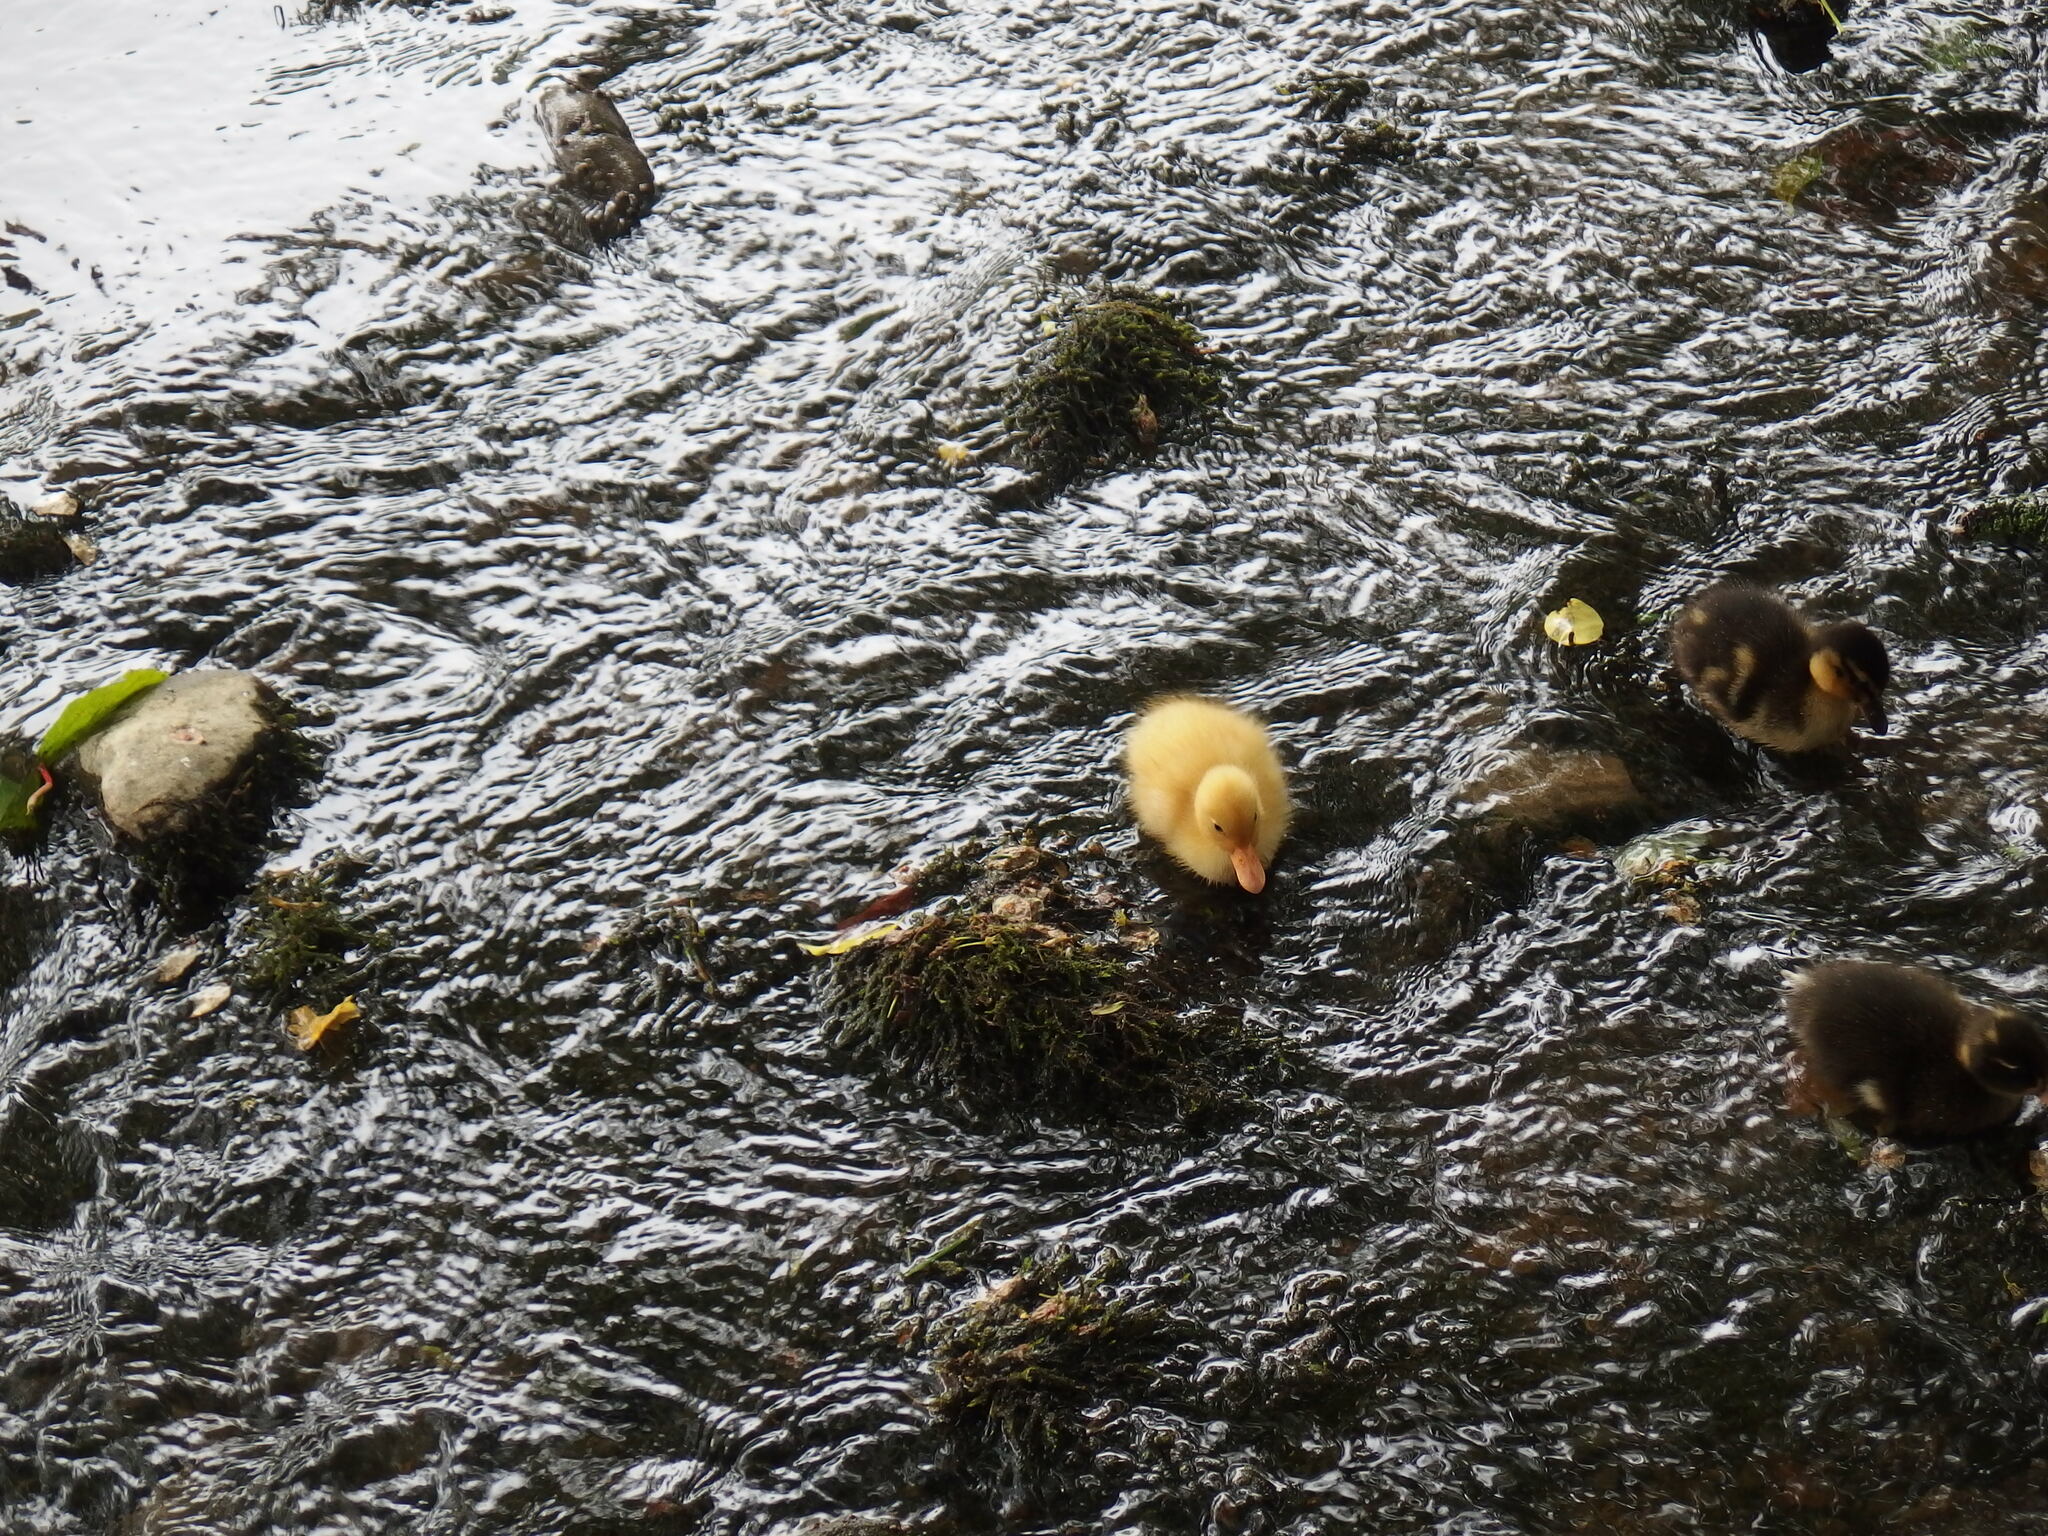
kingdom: Animalia
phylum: Chordata
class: Aves
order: Anseriformes
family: Anatidae
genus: Anas
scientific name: Anas platyrhynchos
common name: Mallard
